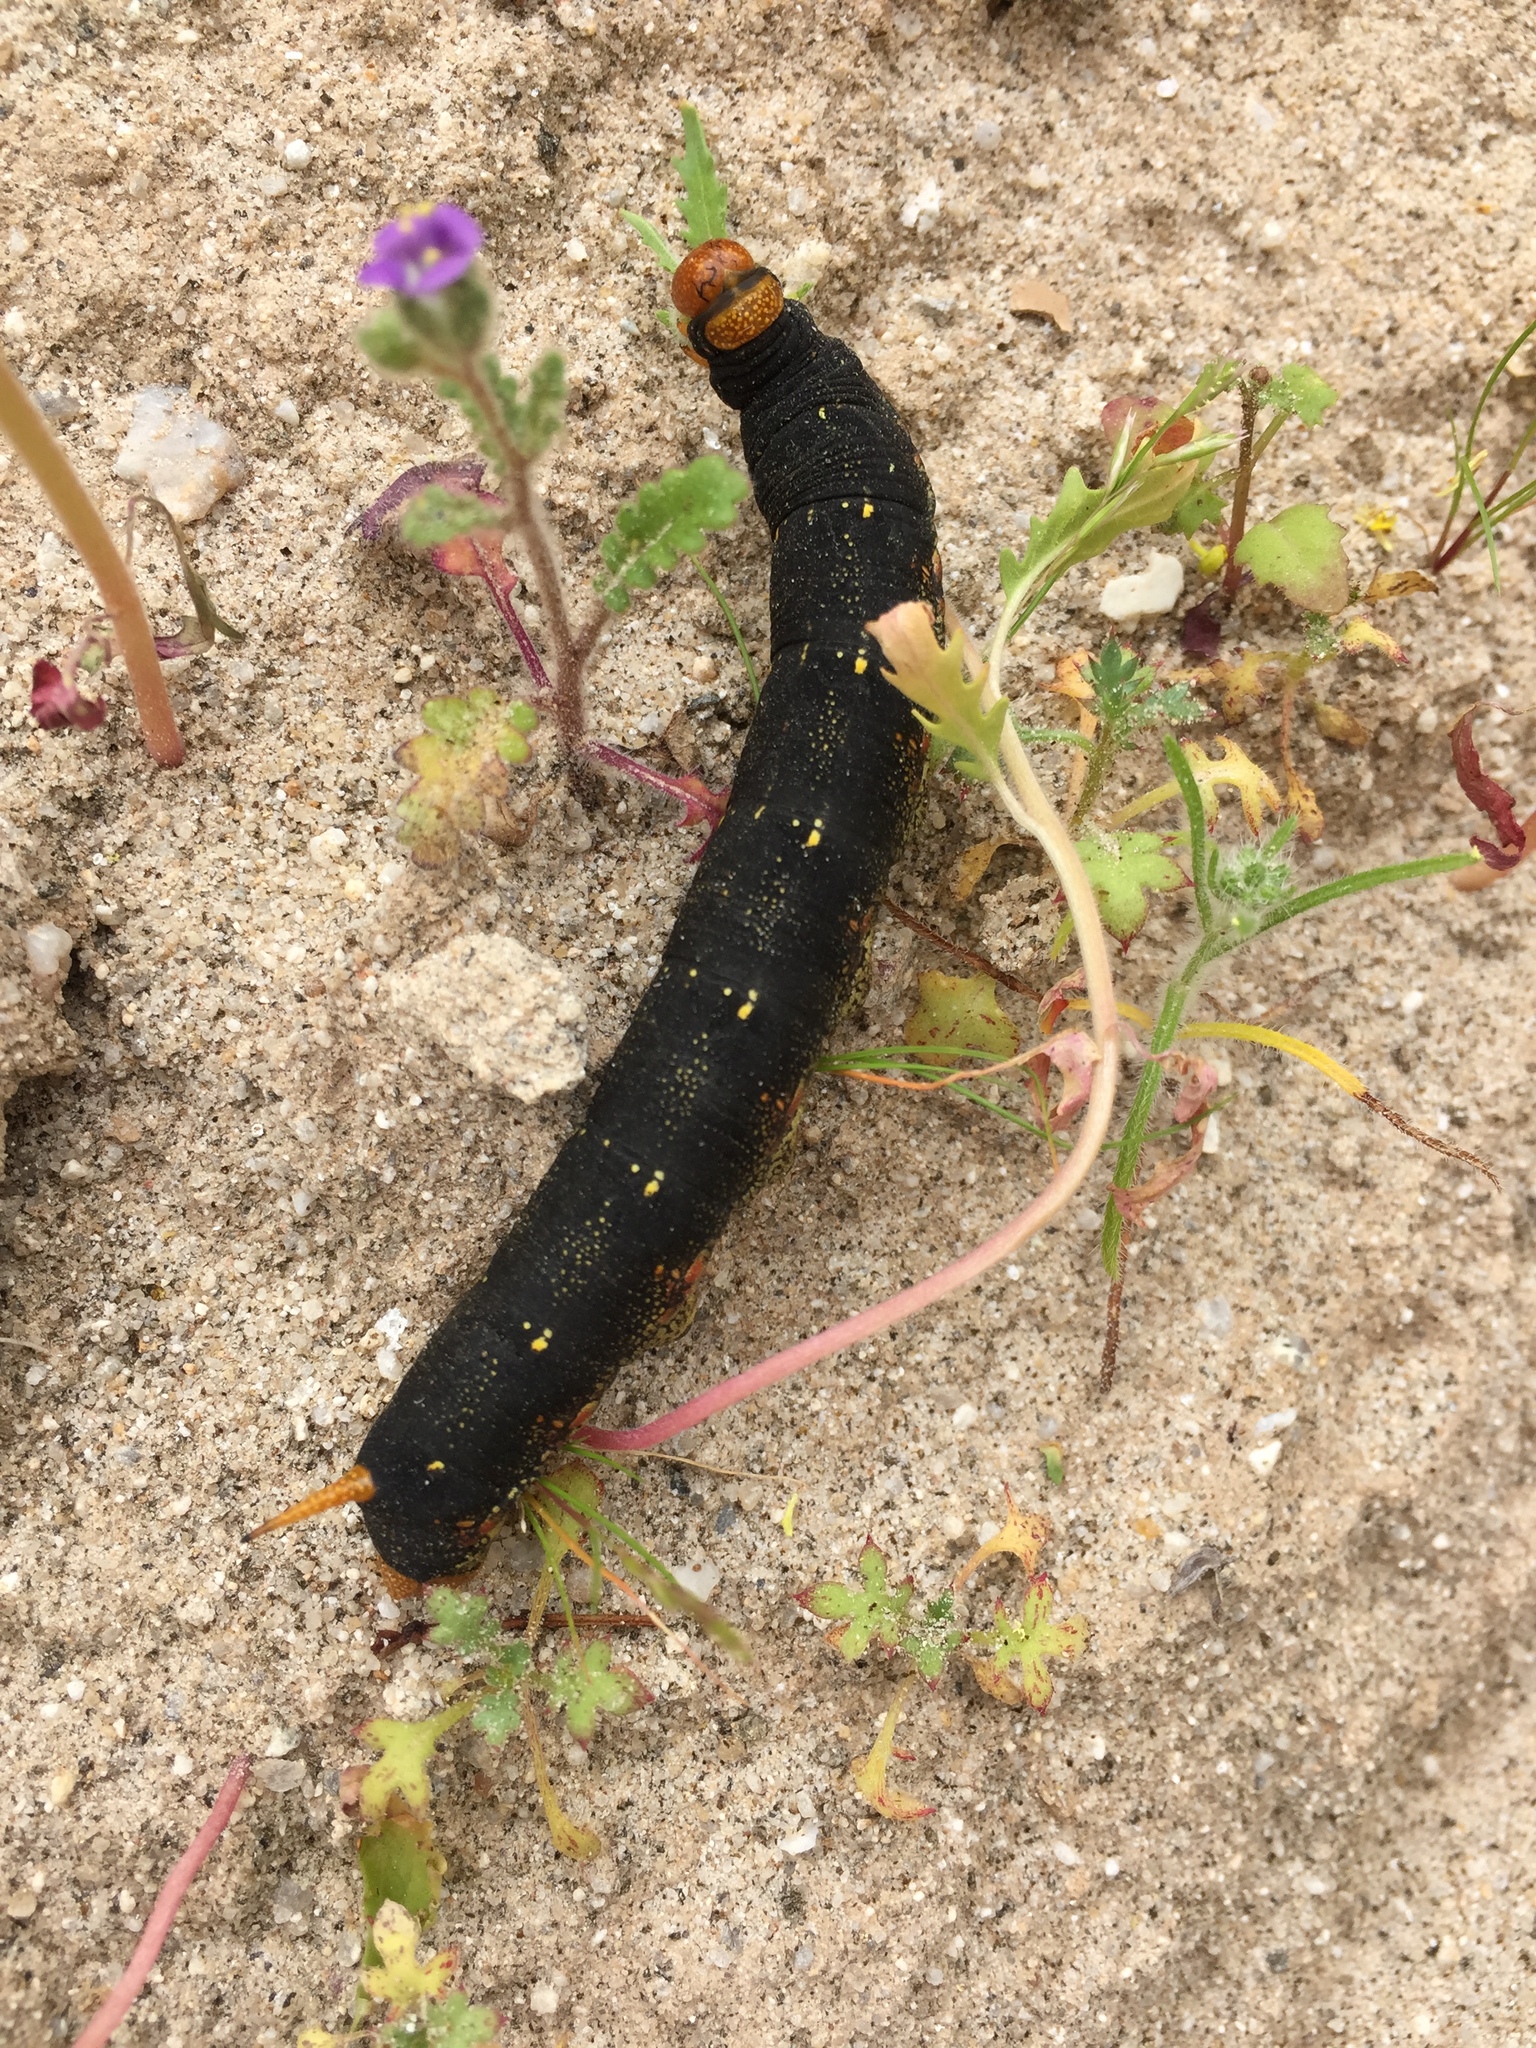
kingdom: Animalia
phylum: Arthropoda
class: Insecta
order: Lepidoptera
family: Sphingidae
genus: Hyles
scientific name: Hyles lineata
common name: White-lined sphinx
